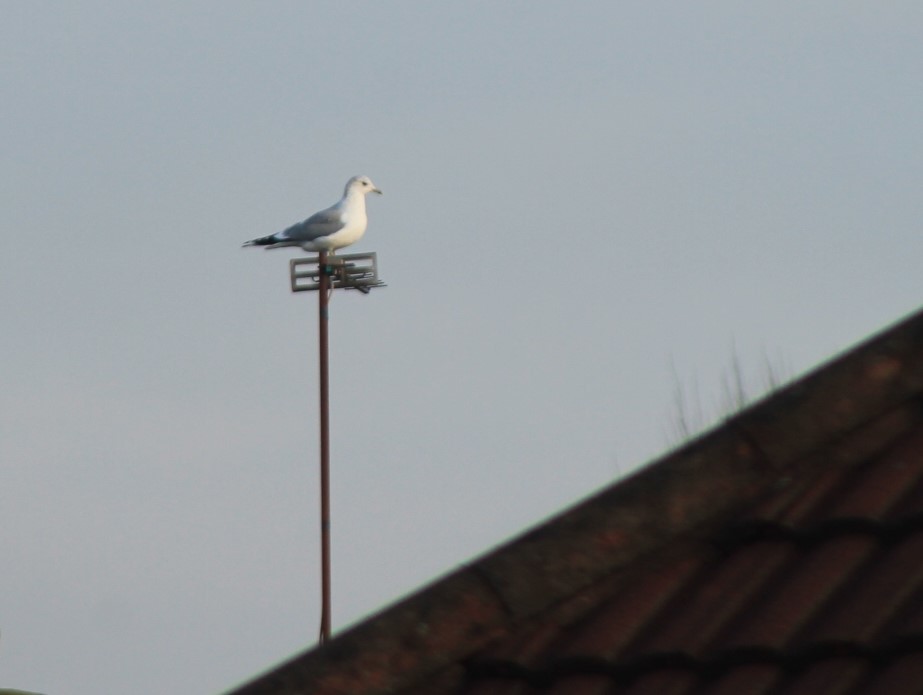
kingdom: Animalia
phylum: Chordata
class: Aves
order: Charadriiformes
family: Laridae
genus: Larus
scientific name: Larus canus
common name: Mew gull
